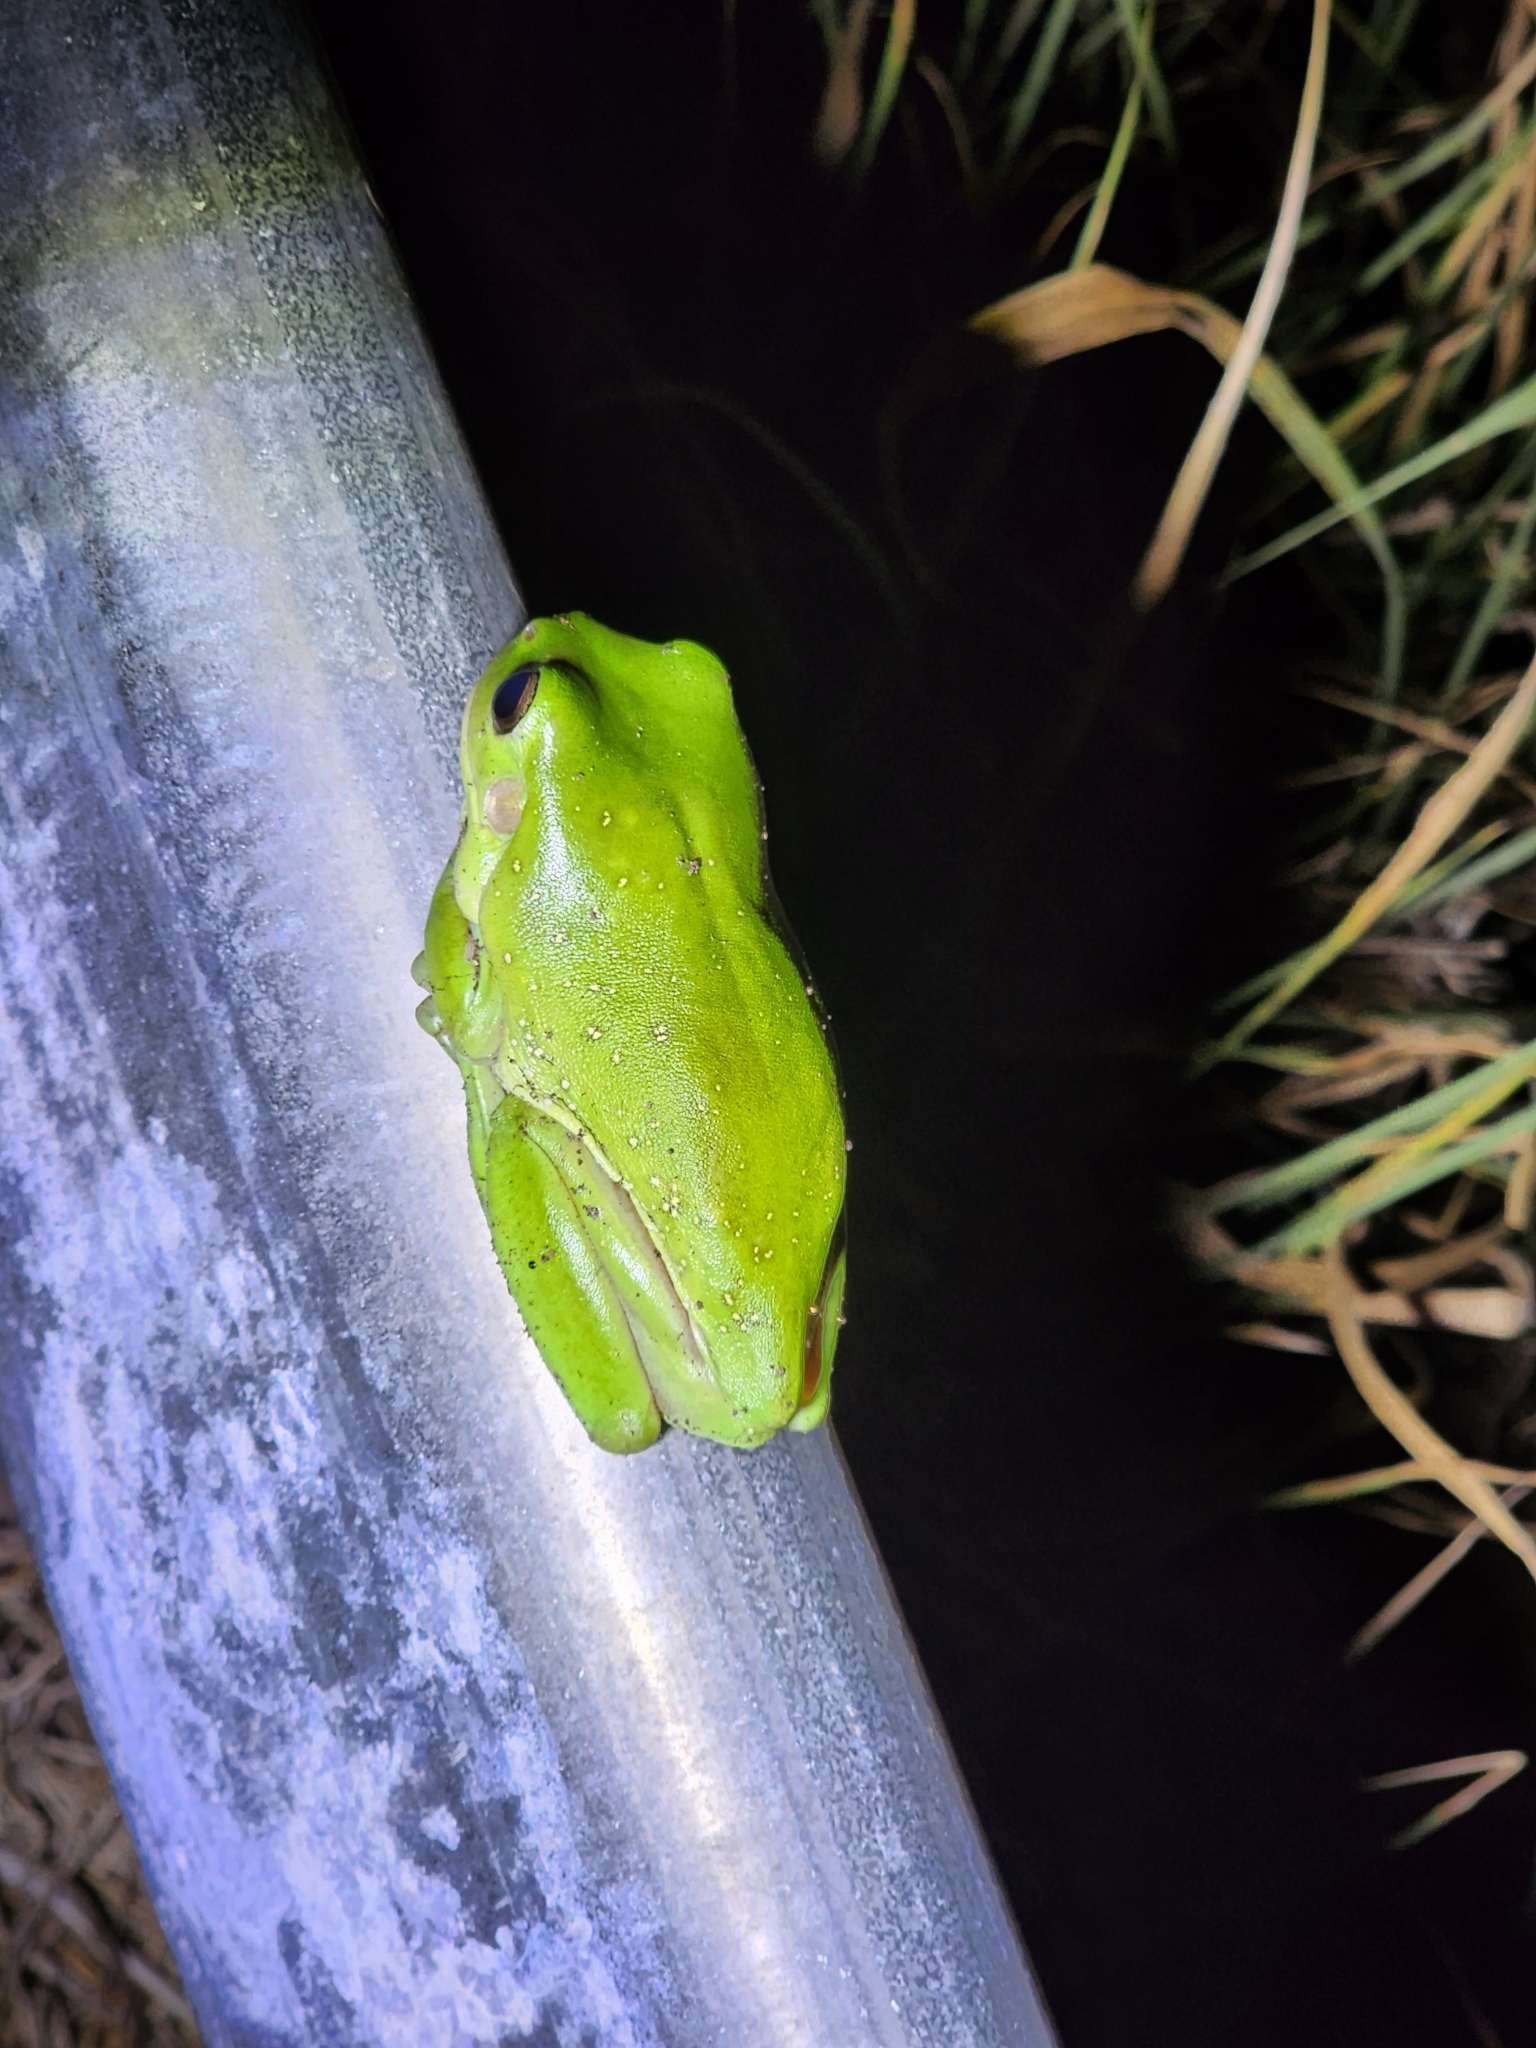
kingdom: Animalia
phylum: Chordata
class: Amphibia
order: Anura
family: Pelodryadidae
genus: Ranoidea
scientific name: Ranoidea caerulea
